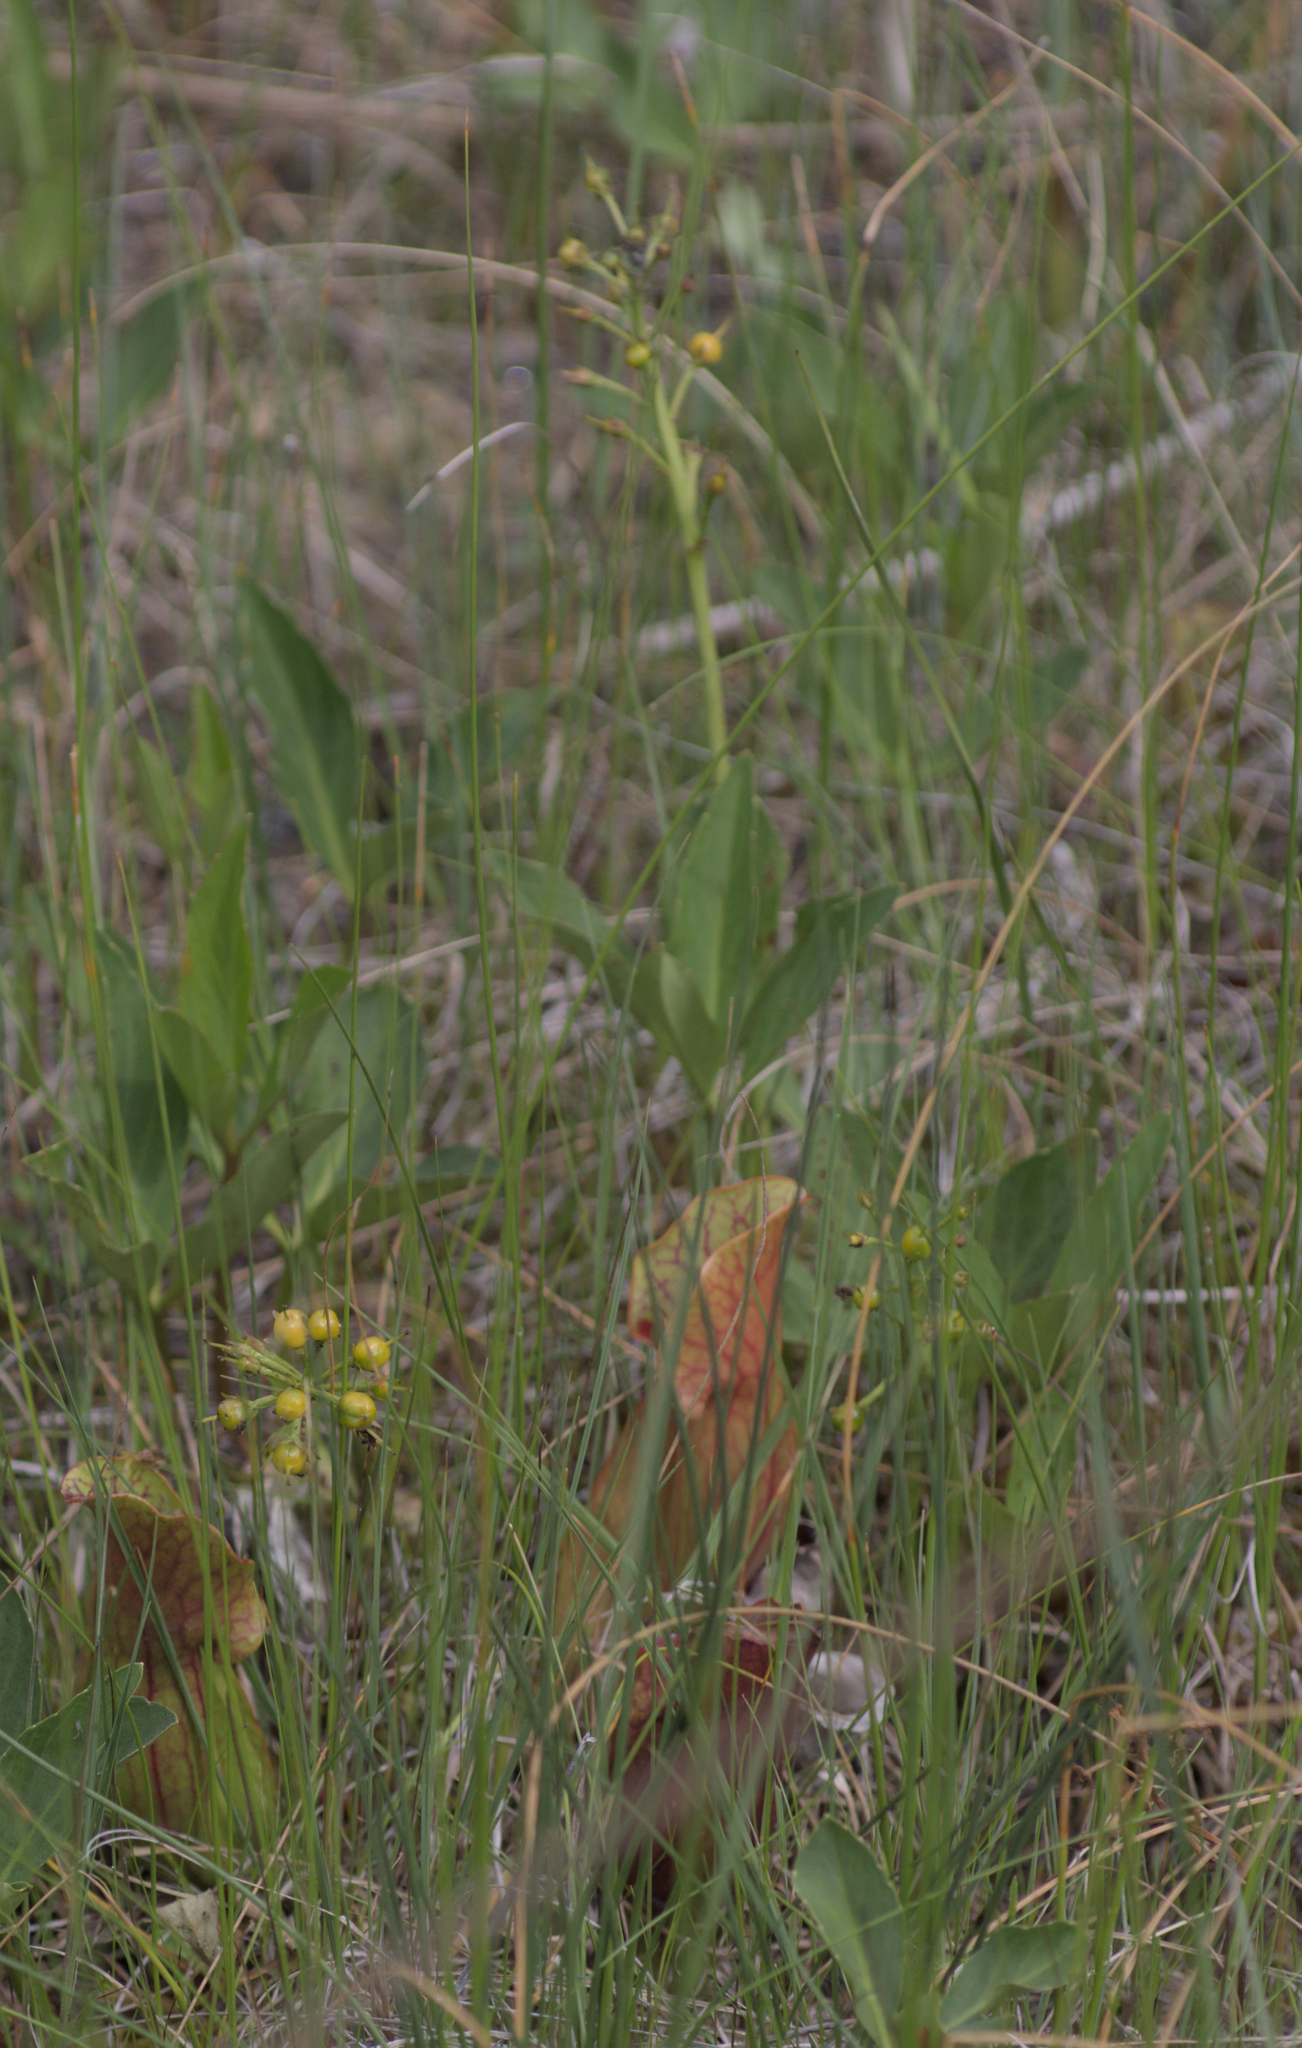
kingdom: Plantae
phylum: Tracheophyta
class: Magnoliopsida
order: Asterales
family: Menyanthaceae
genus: Menyanthes
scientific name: Menyanthes trifoliata
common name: Bogbean
